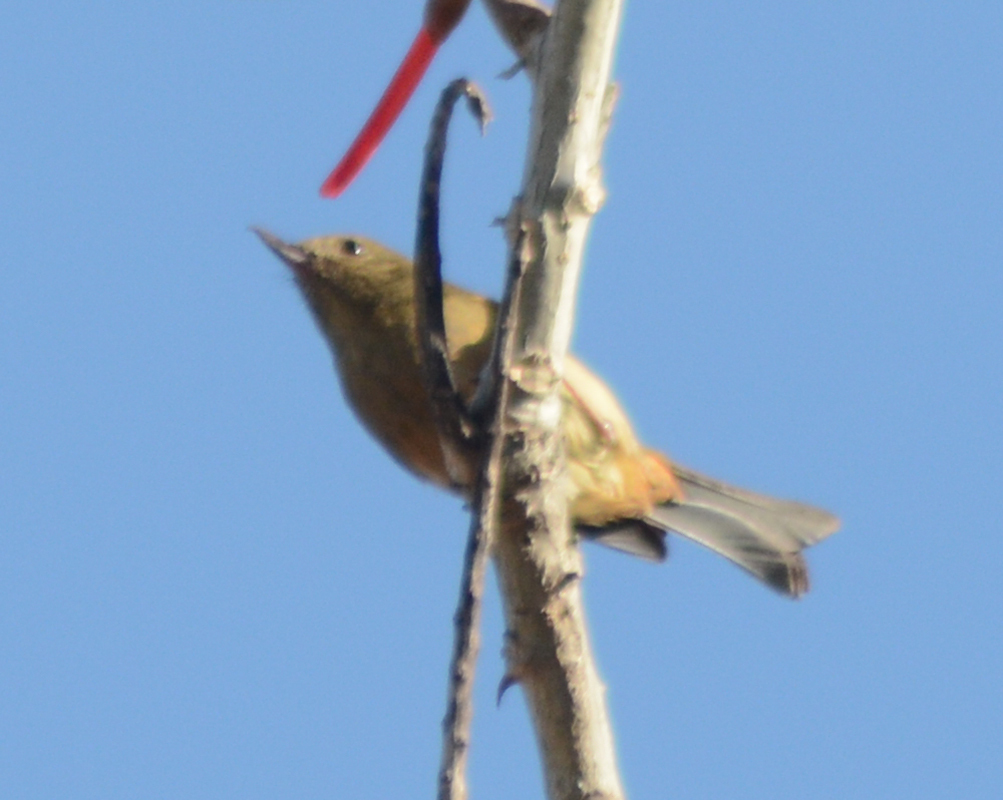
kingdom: Animalia
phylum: Chordata
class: Aves
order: Passeriformes
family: Thraupidae
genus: Diglossa
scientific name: Diglossa baritula
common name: Cinnamon-bellied flowerpiercer
